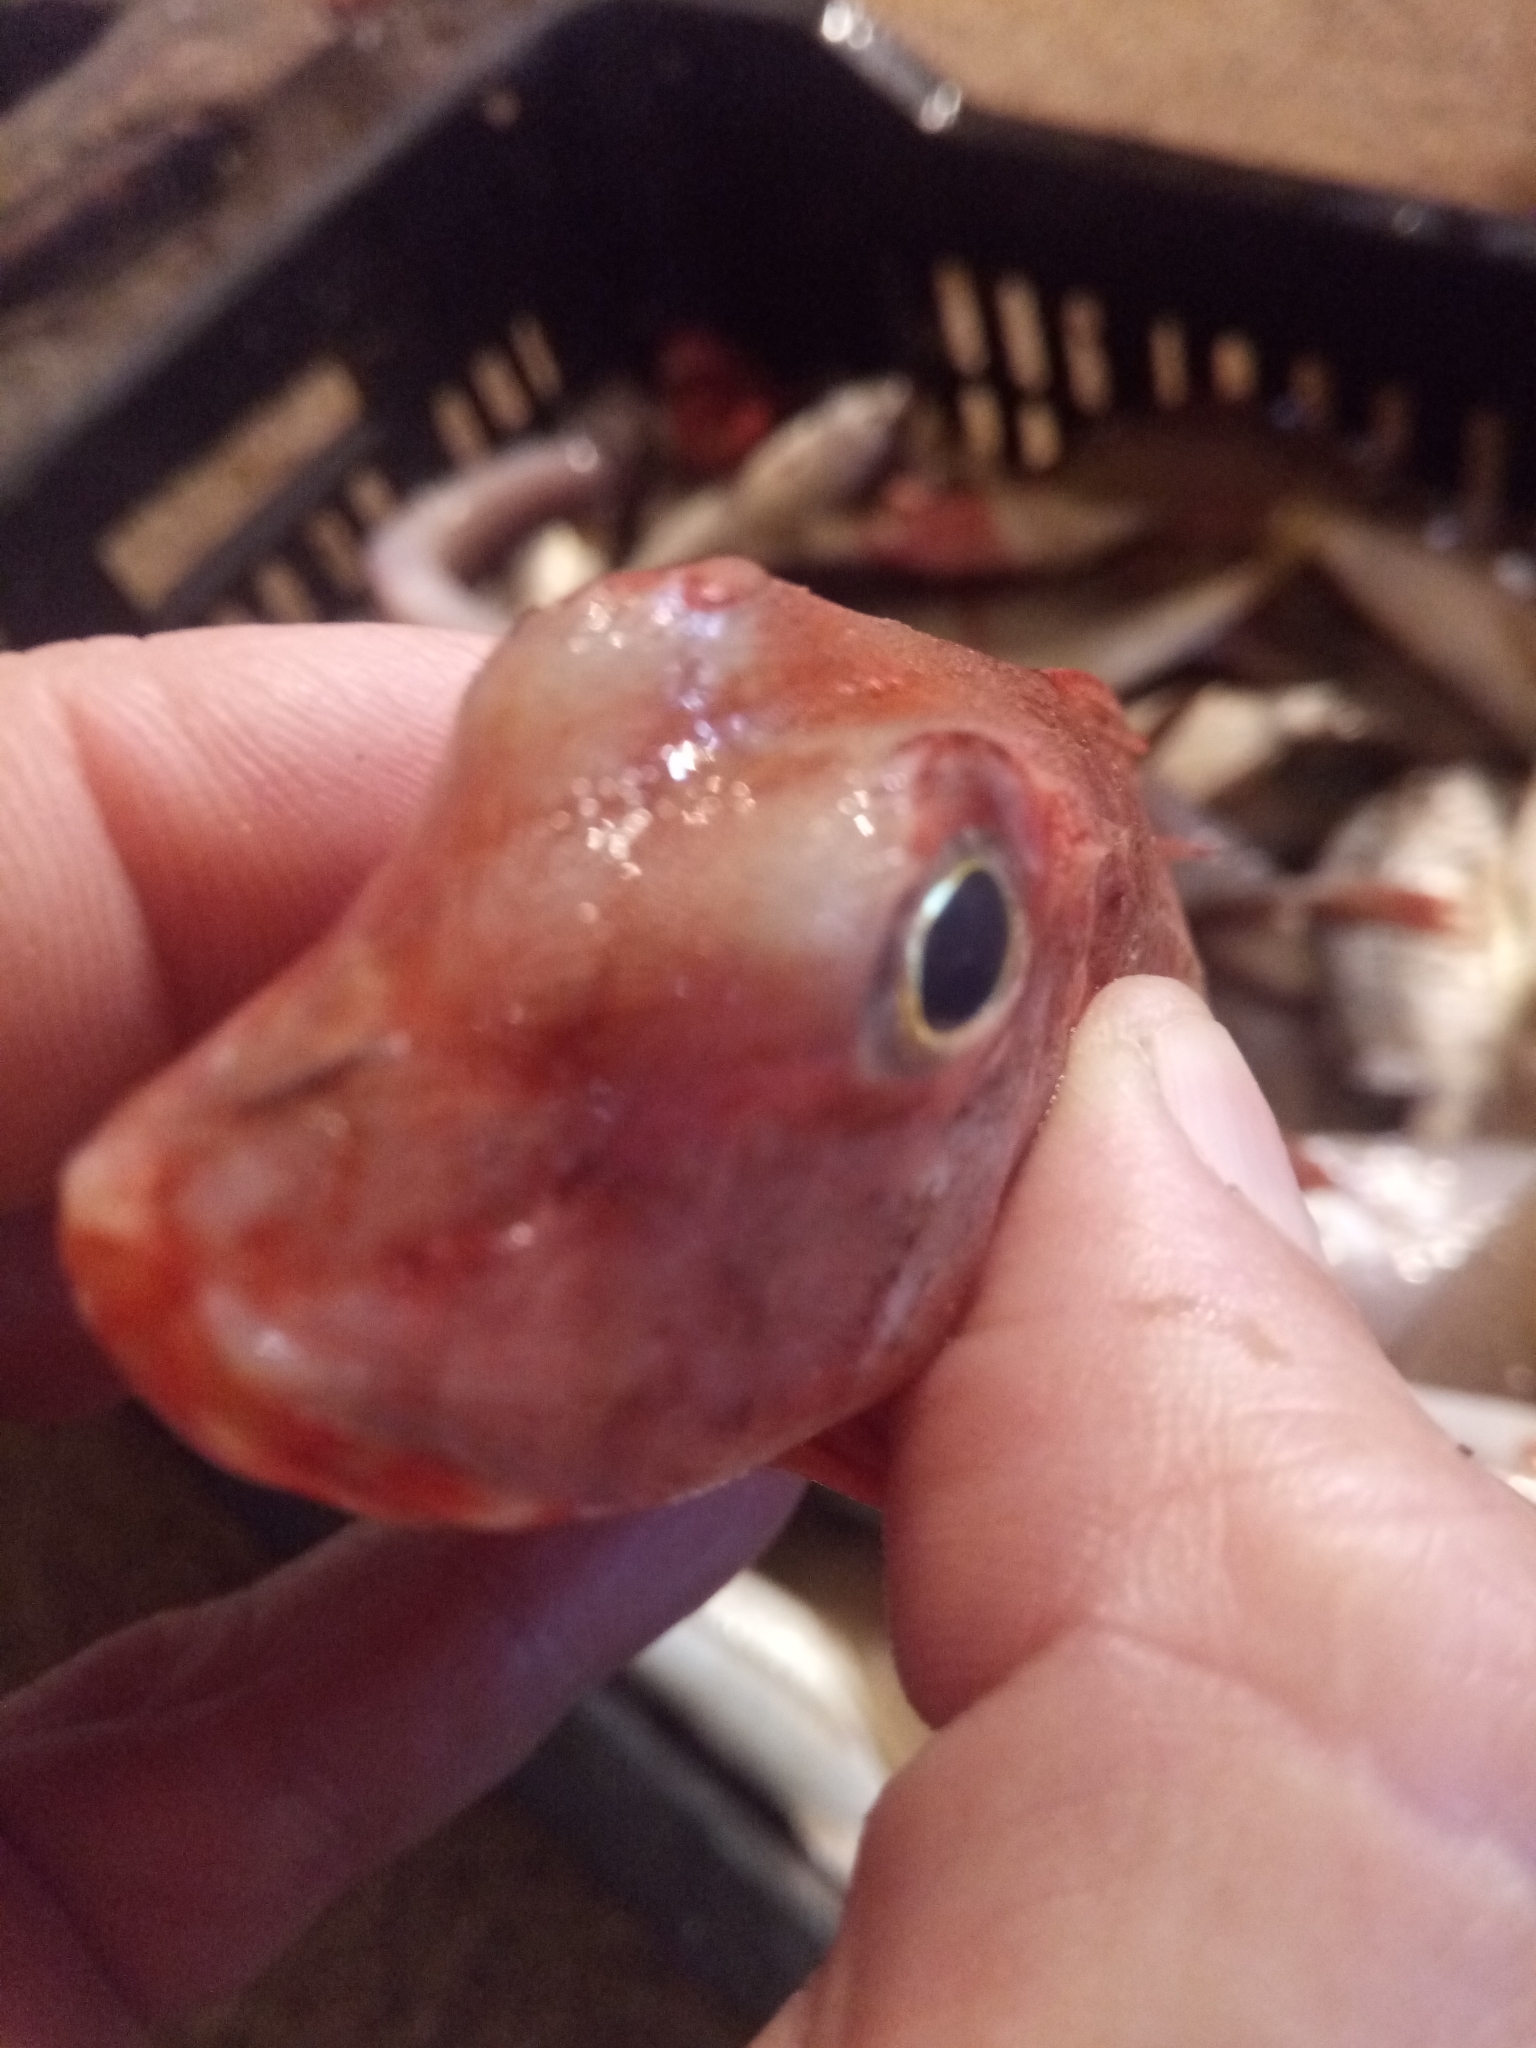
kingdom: Animalia
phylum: Chordata
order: Scorpaeniformes
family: Triglidae
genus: Chelidonichthys
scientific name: Chelidonichthys lastoviza
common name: Streaked gurnard
